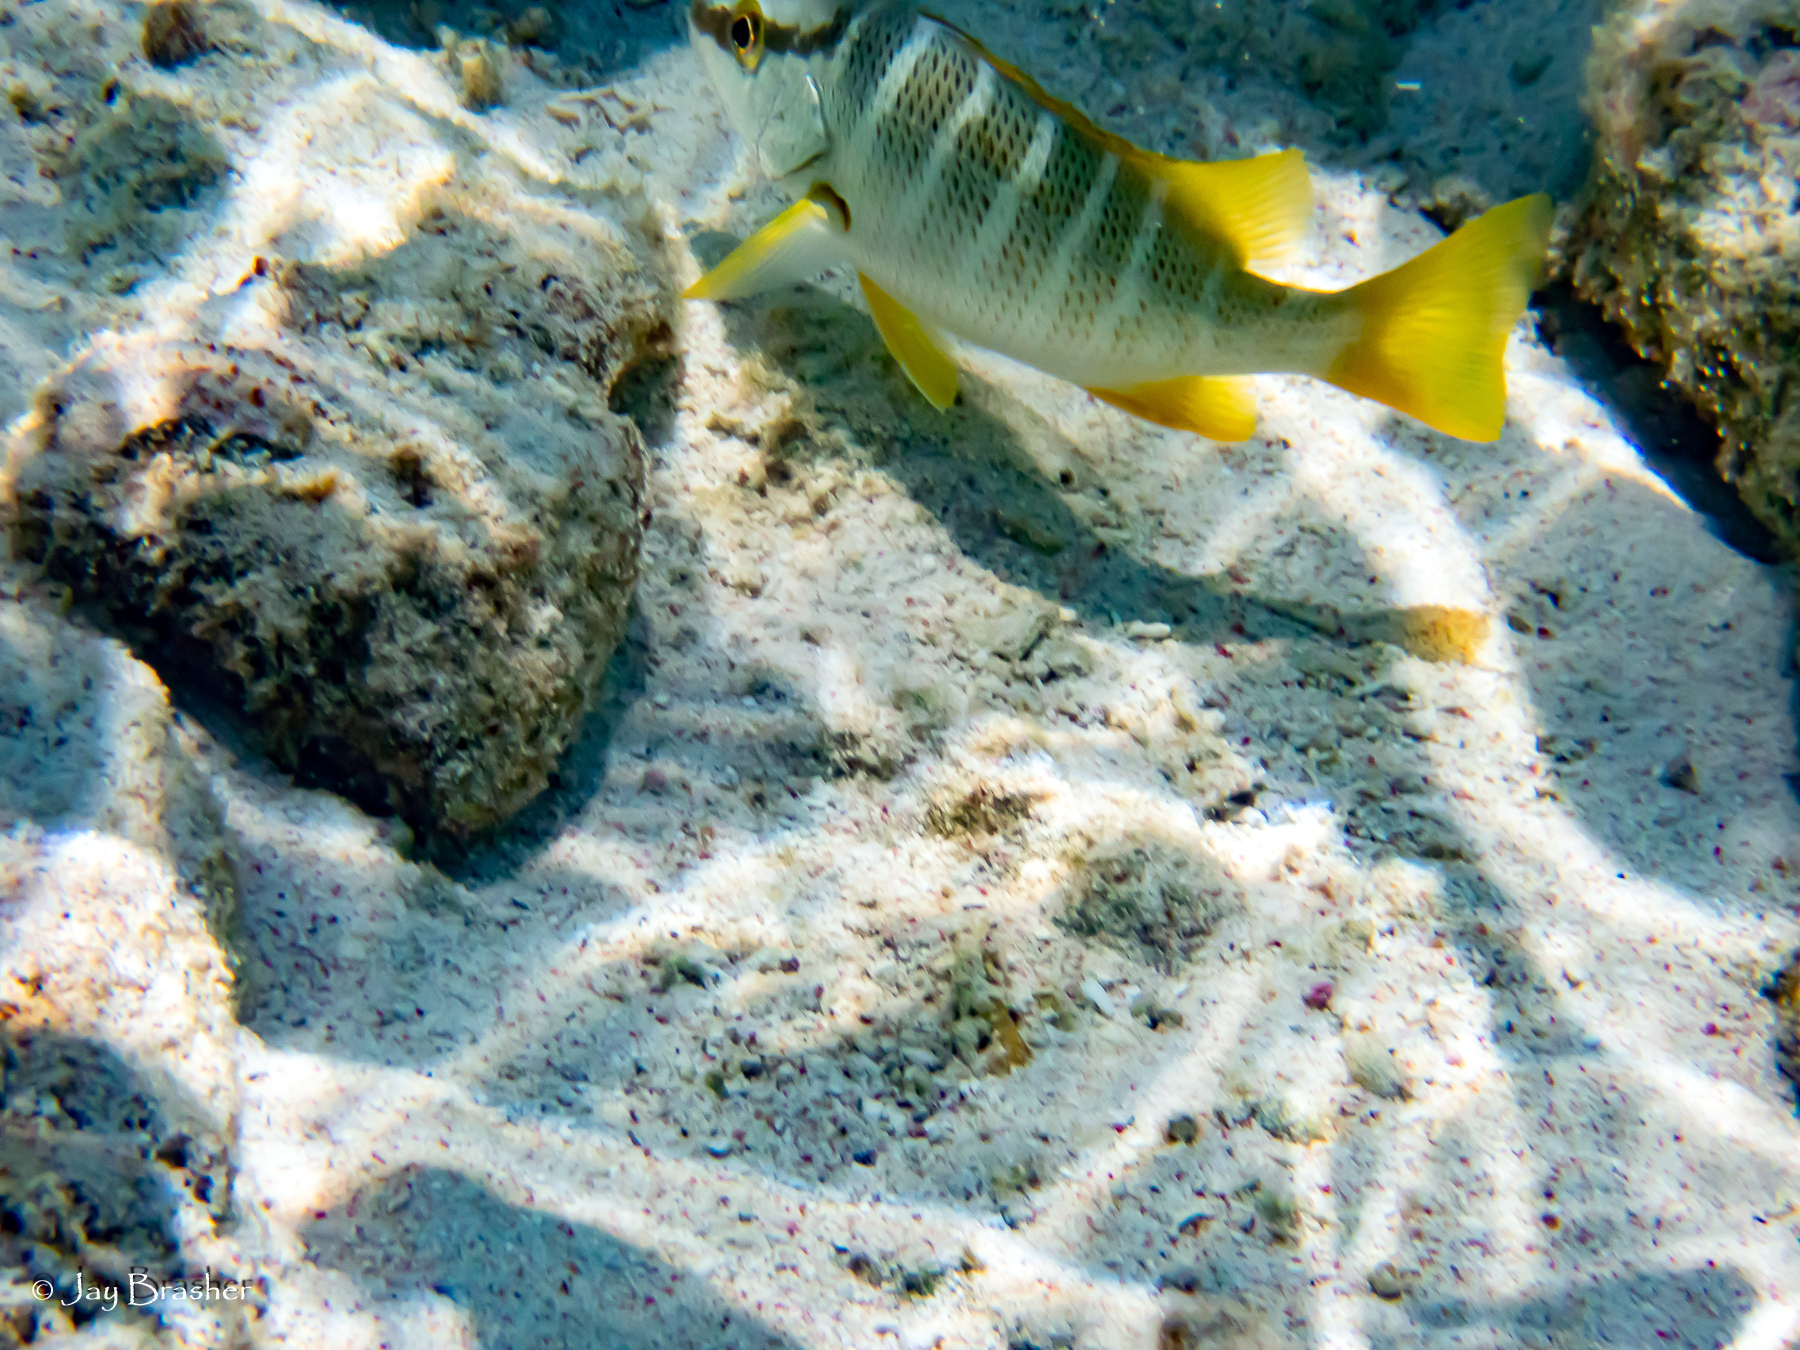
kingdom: Animalia
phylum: Chordata
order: Perciformes
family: Lutjanidae
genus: Lutjanus
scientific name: Lutjanus apodus
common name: Schoolmaster
